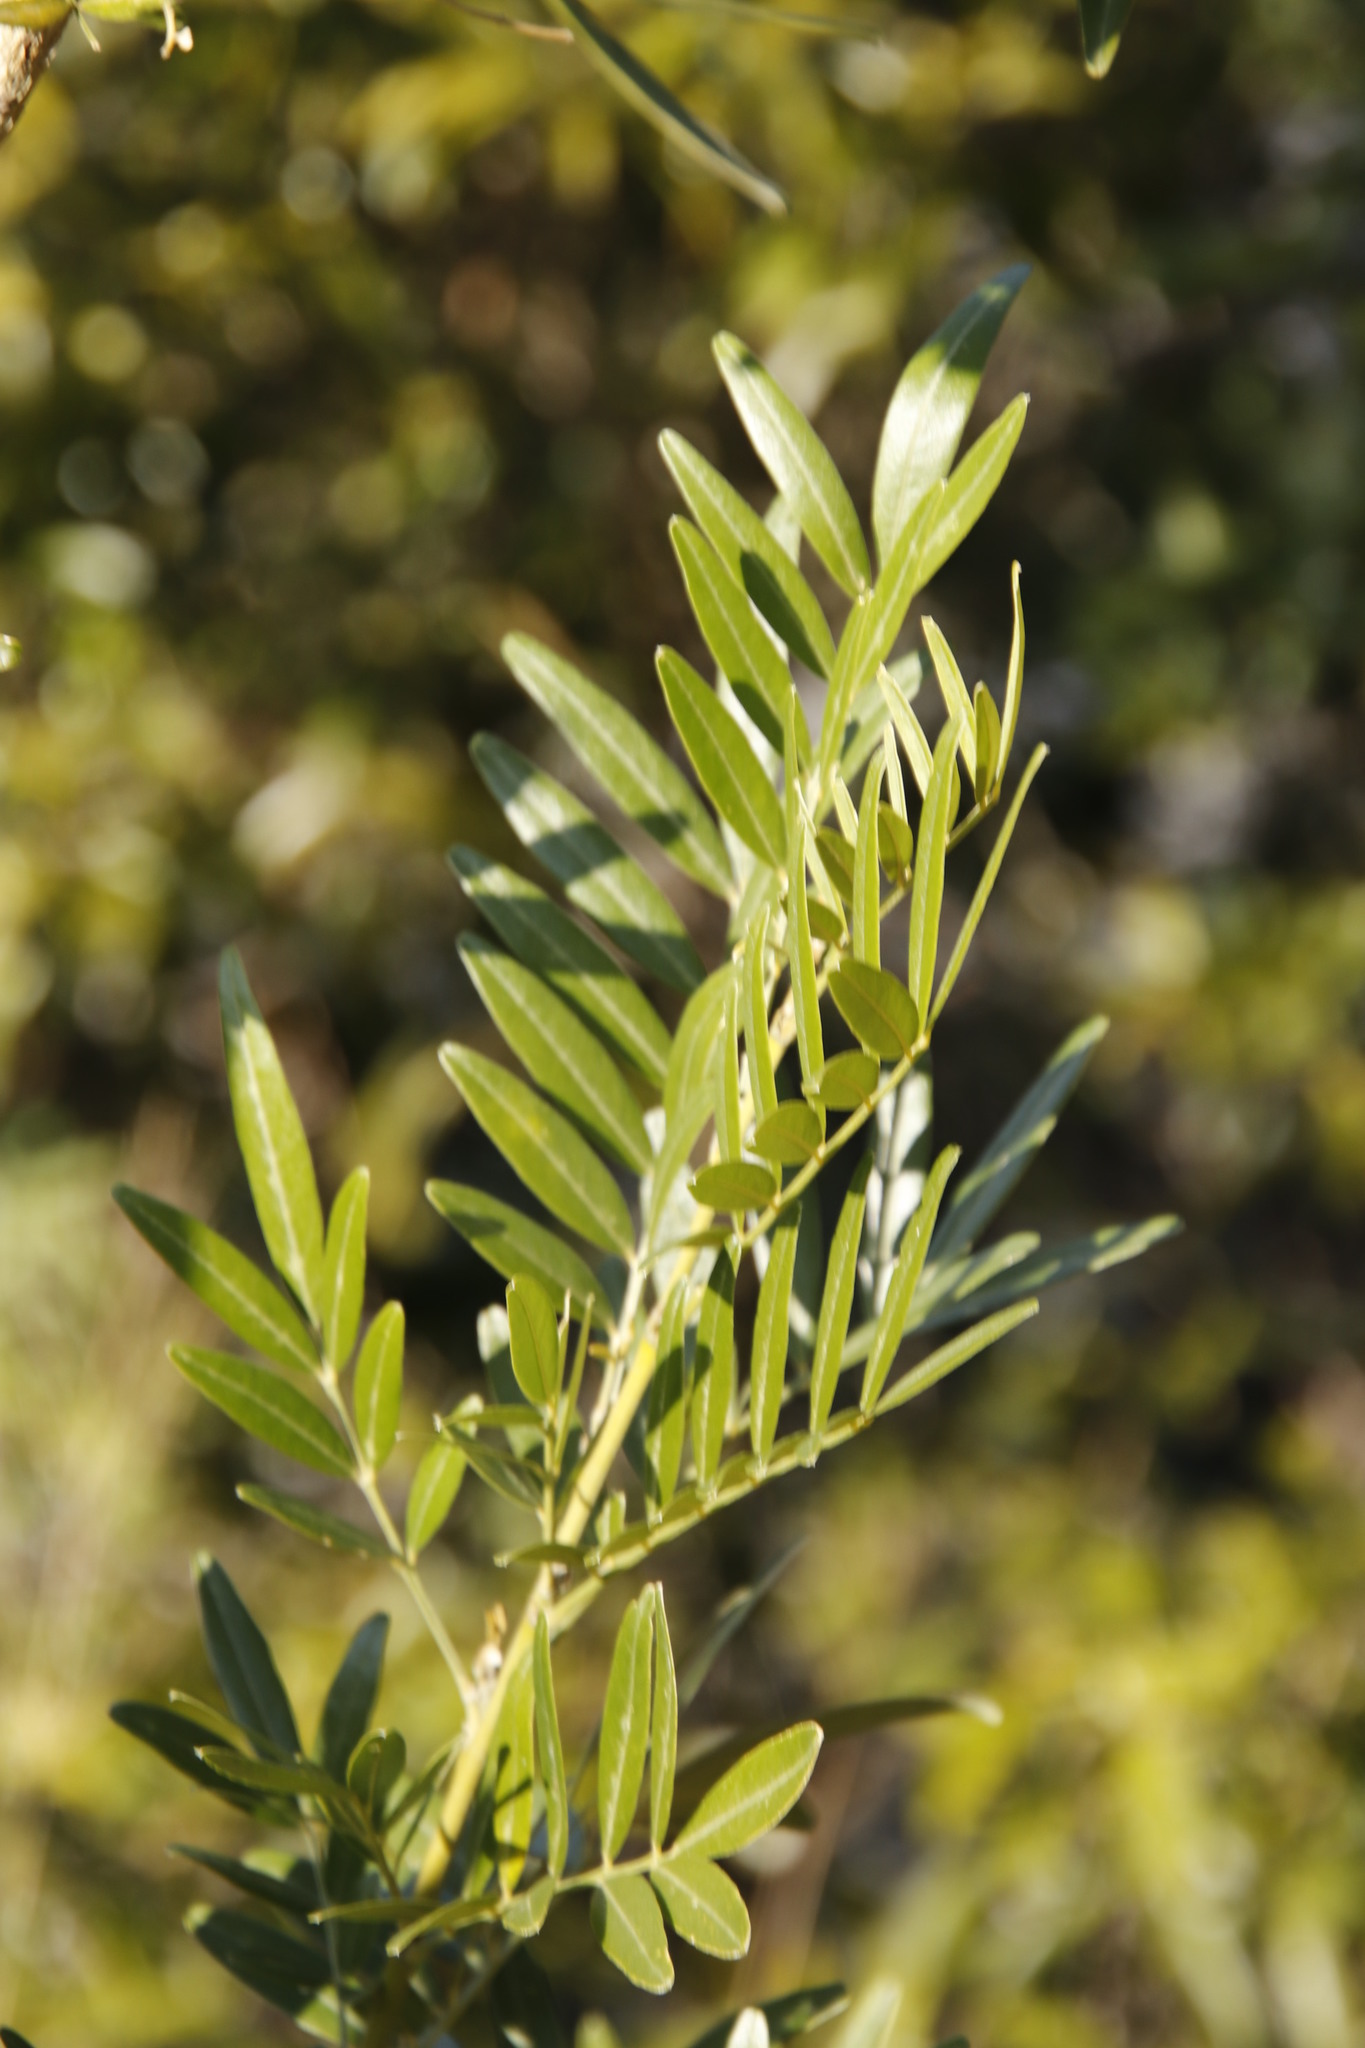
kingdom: Plantae
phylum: Tracheophyta
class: Magnoliopsida
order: Fabales
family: Fabaceae
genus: Mundulea
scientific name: Mundulea sericea
